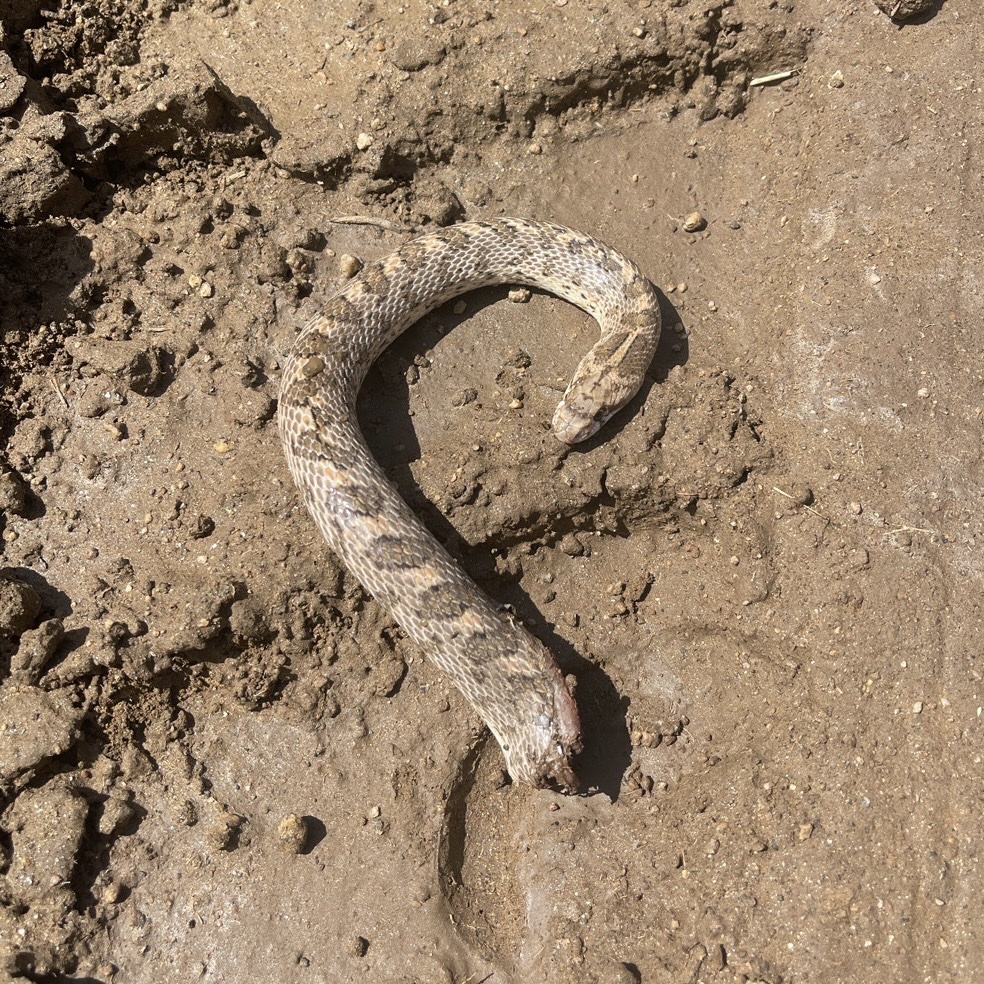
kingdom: Animalia
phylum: Chordata
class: Squamata
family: Colubridae
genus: Arizona
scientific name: Arizona elegans
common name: Glossy snake
